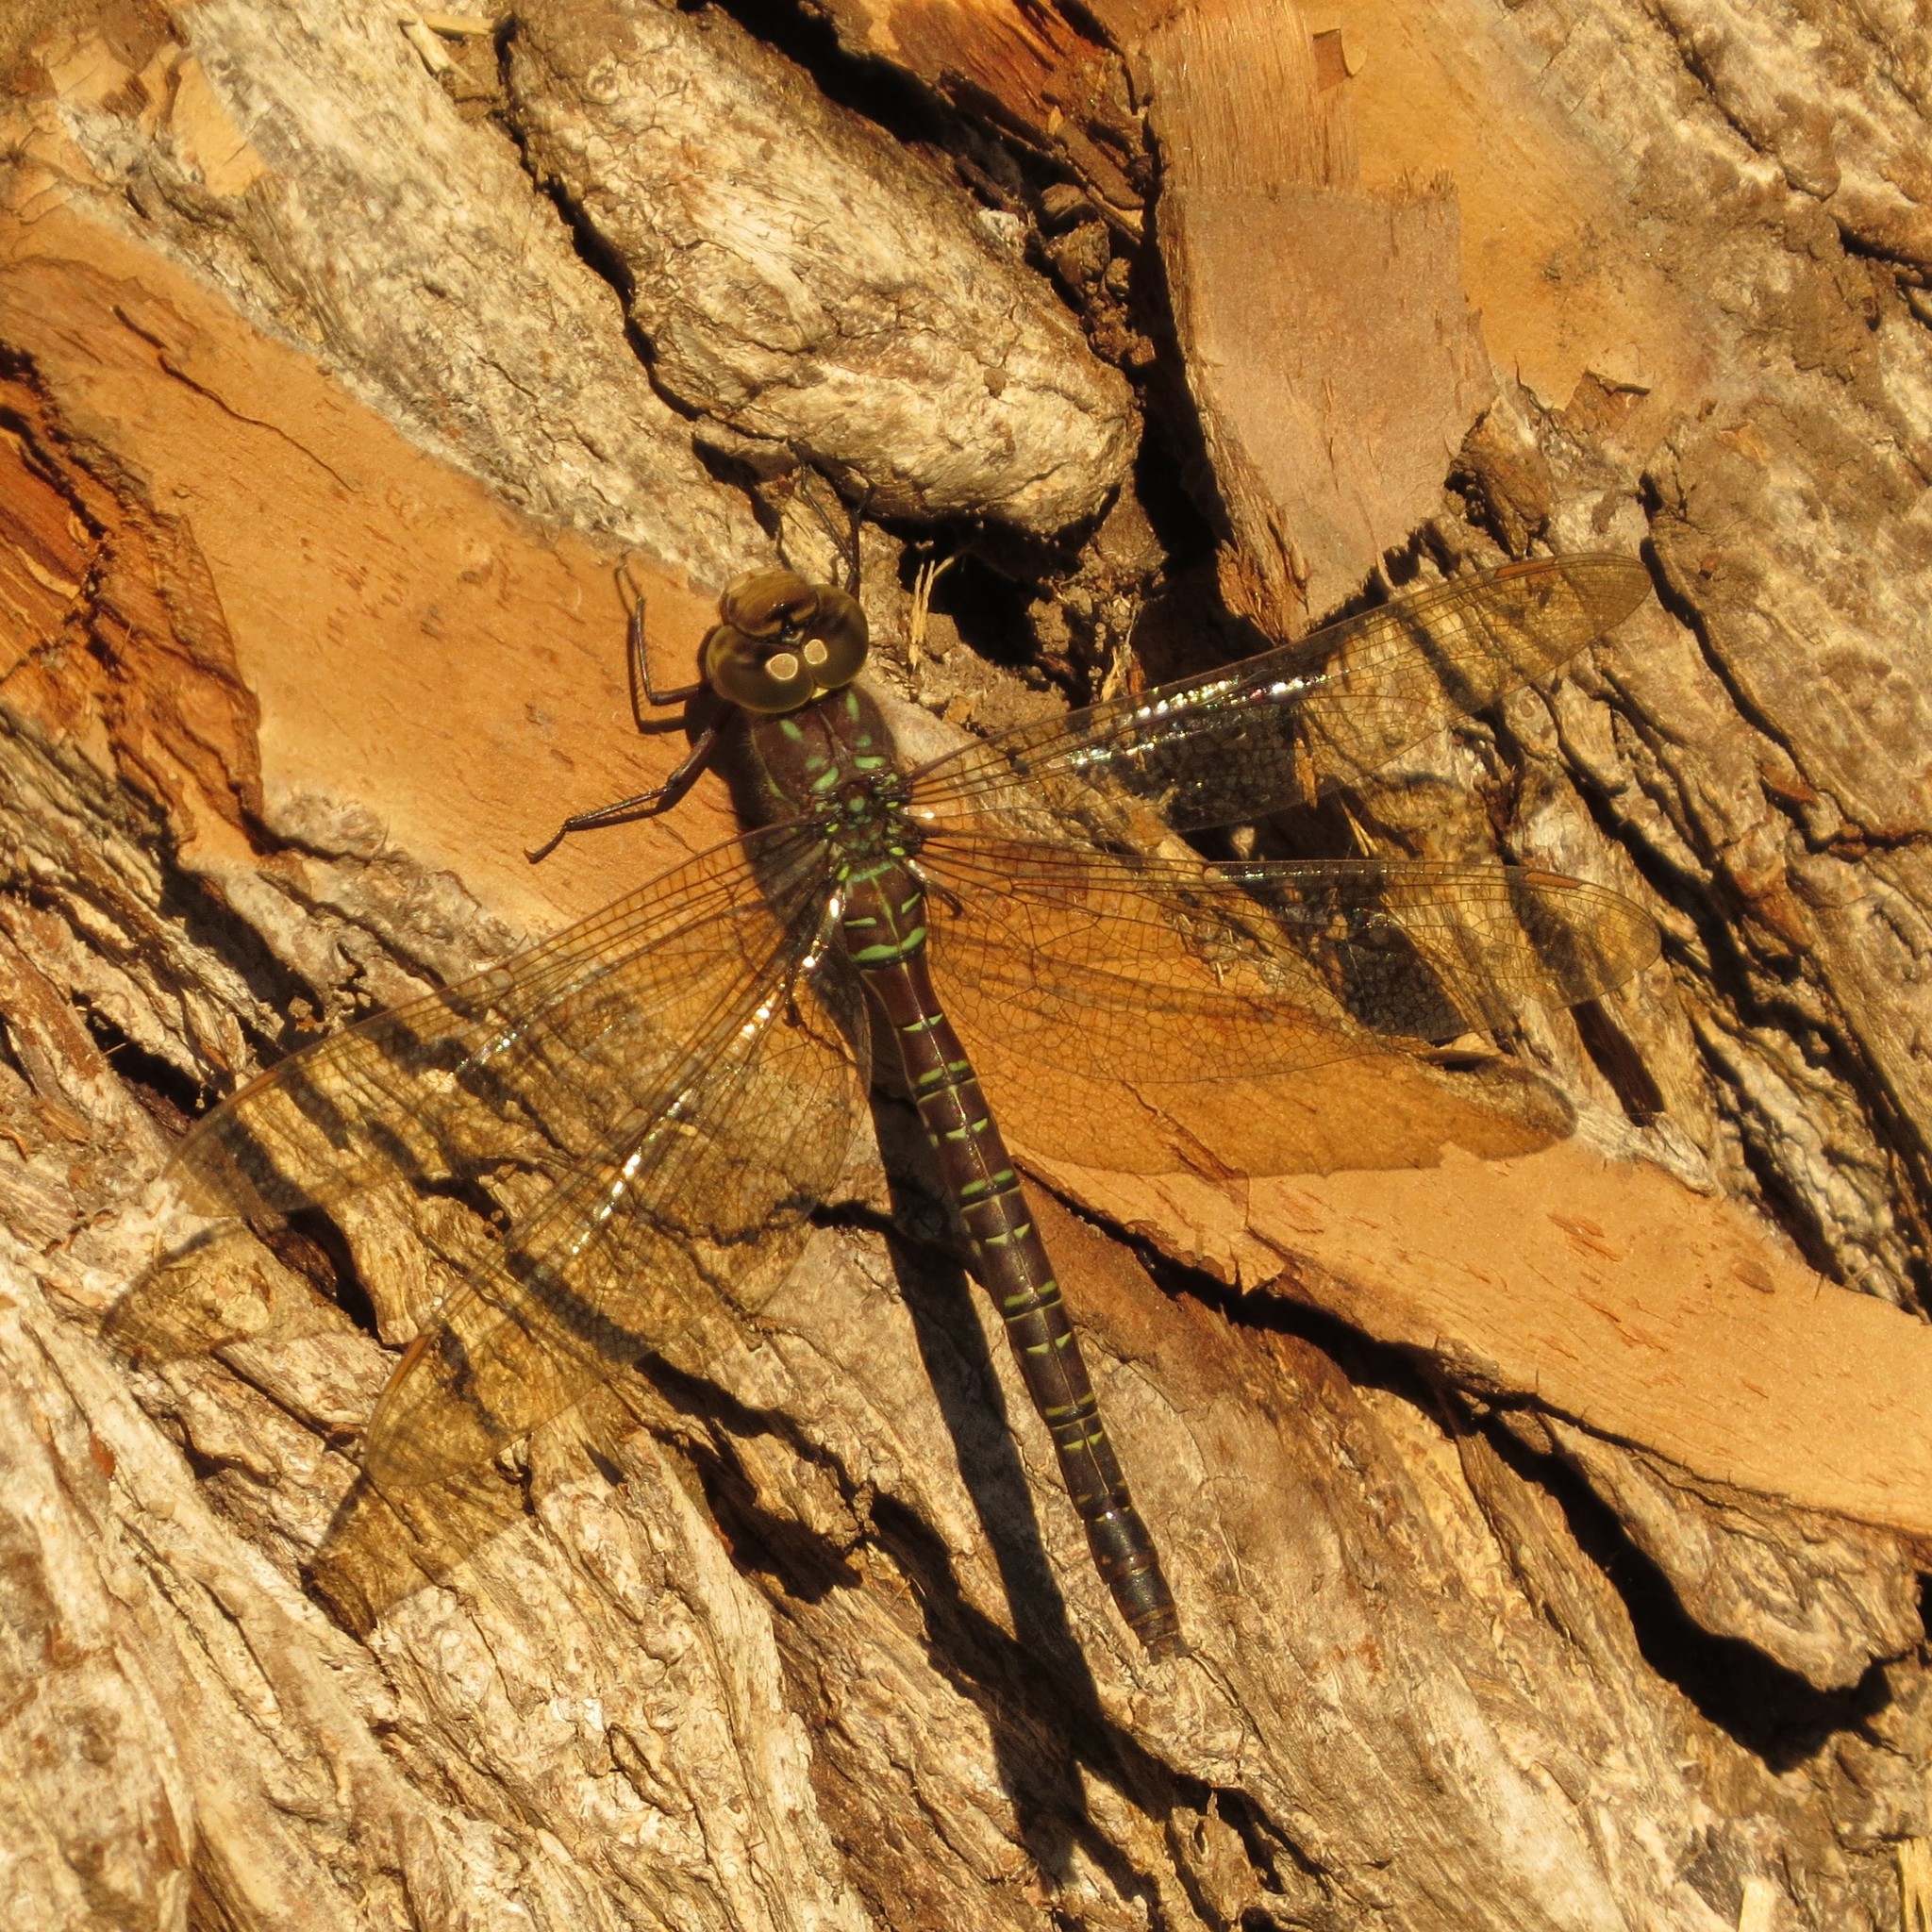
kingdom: Animalia
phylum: Arthropoda
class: Insecta
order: Odonata
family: Aeshnidae
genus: Aeshna
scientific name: Aeshna umbrosa
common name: Shadow darner
